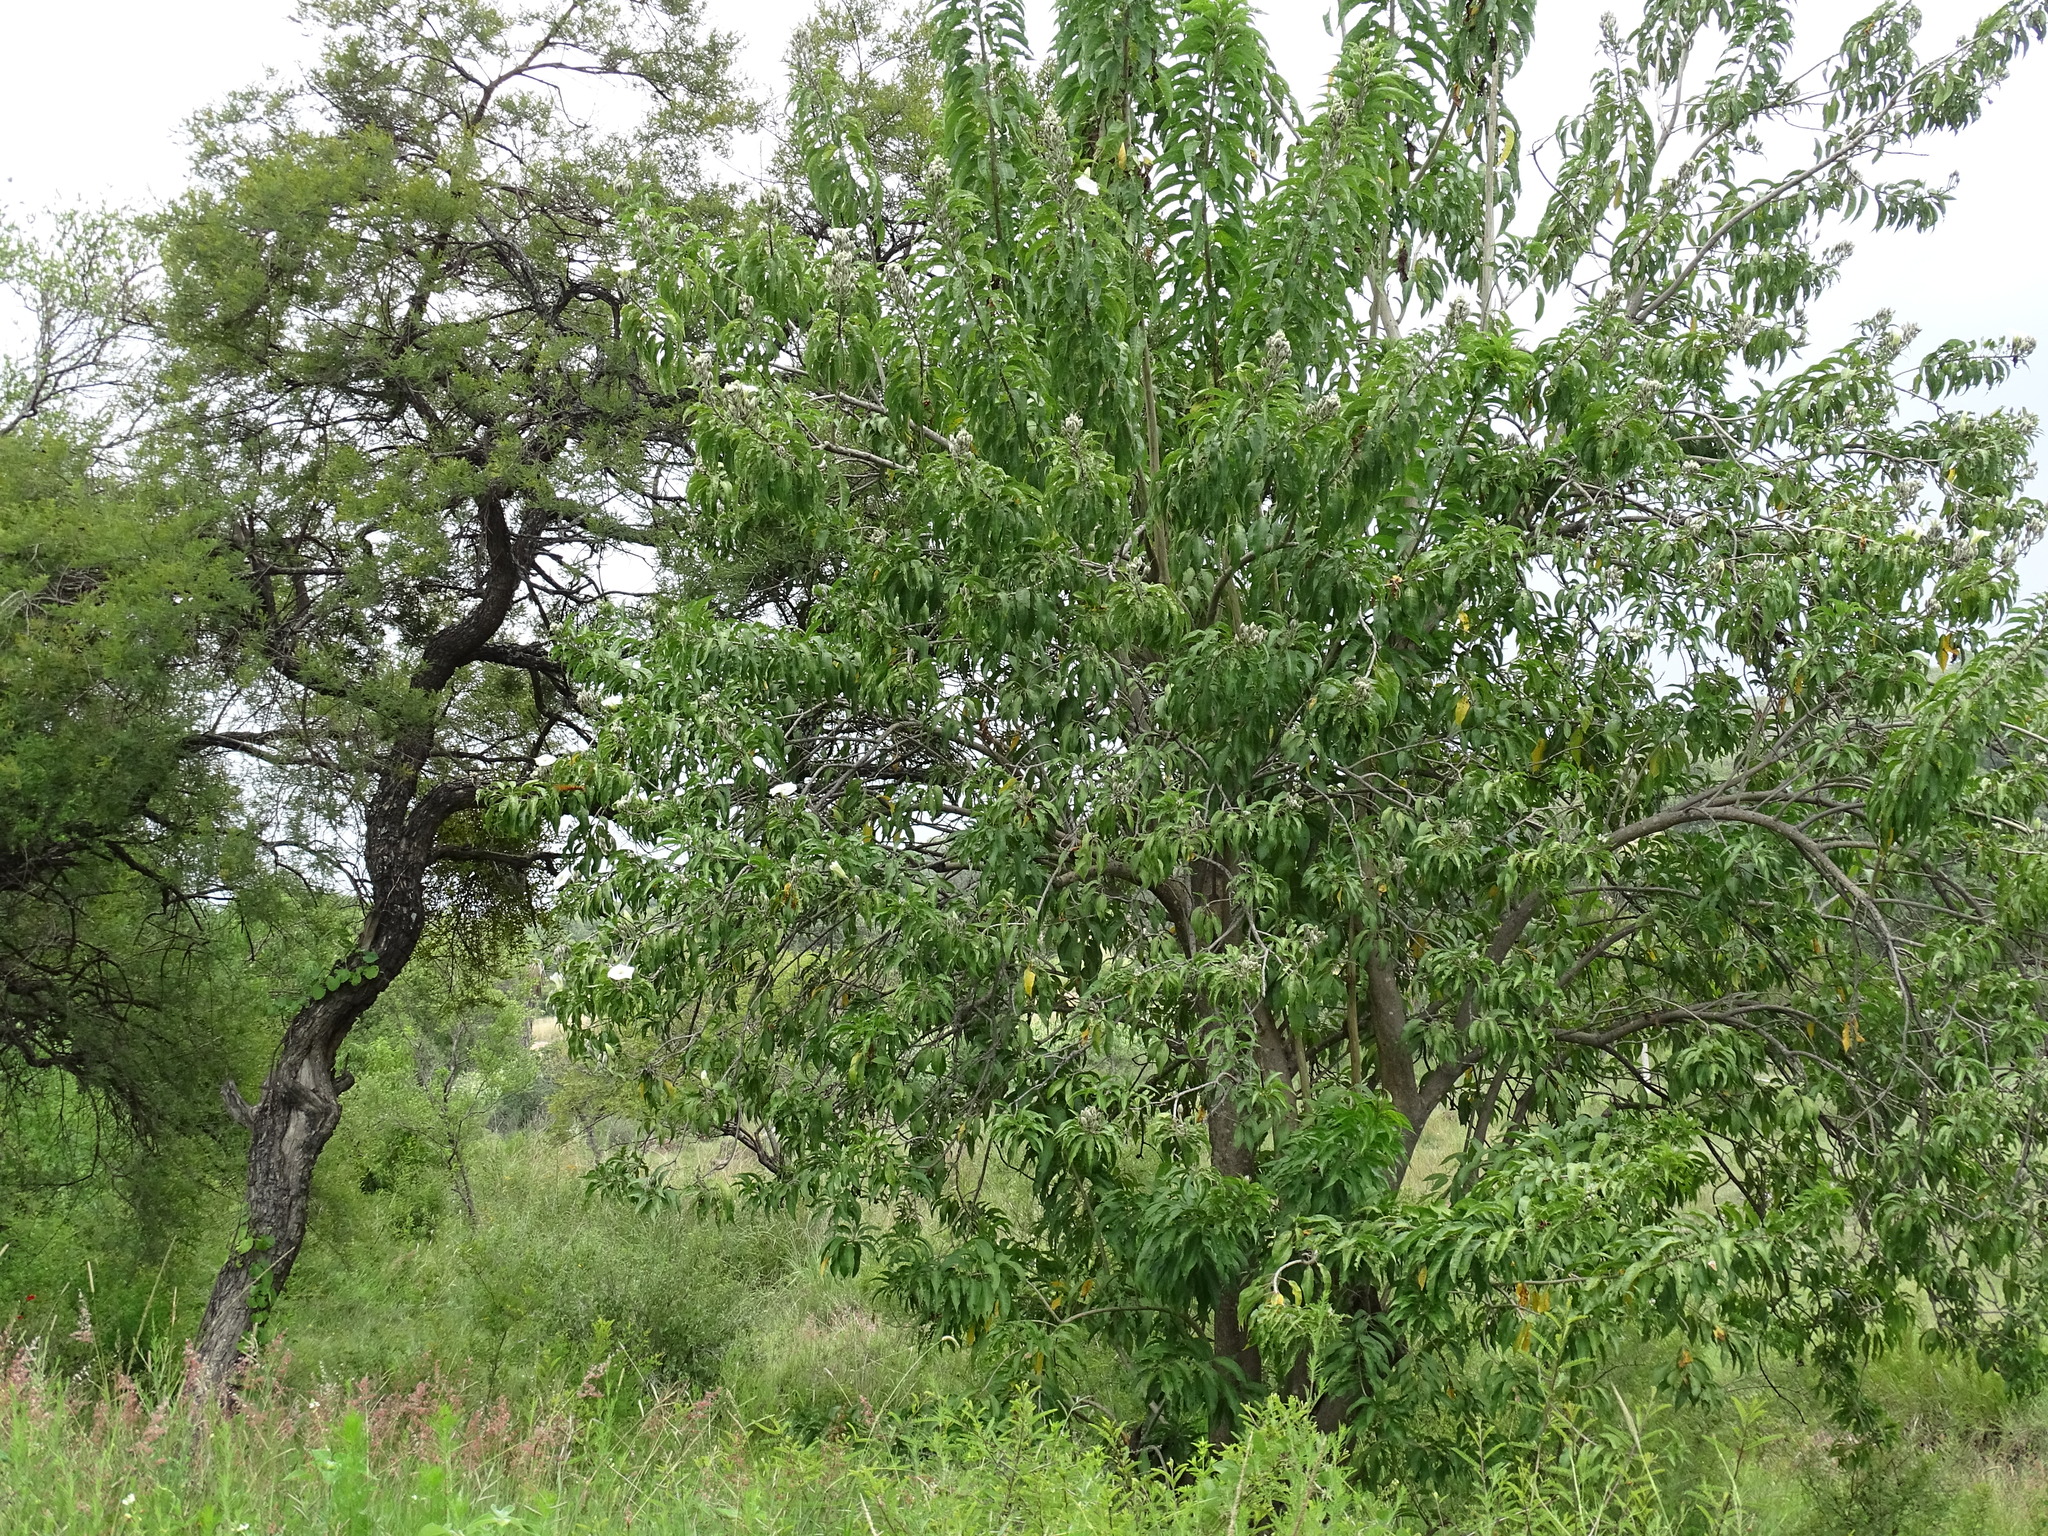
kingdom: Plantae
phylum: Tracheophyta
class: Magnoliopsida
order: Solanales
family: Convolvulaceae
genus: Ipomoea
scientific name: Ipomoea murucoides
